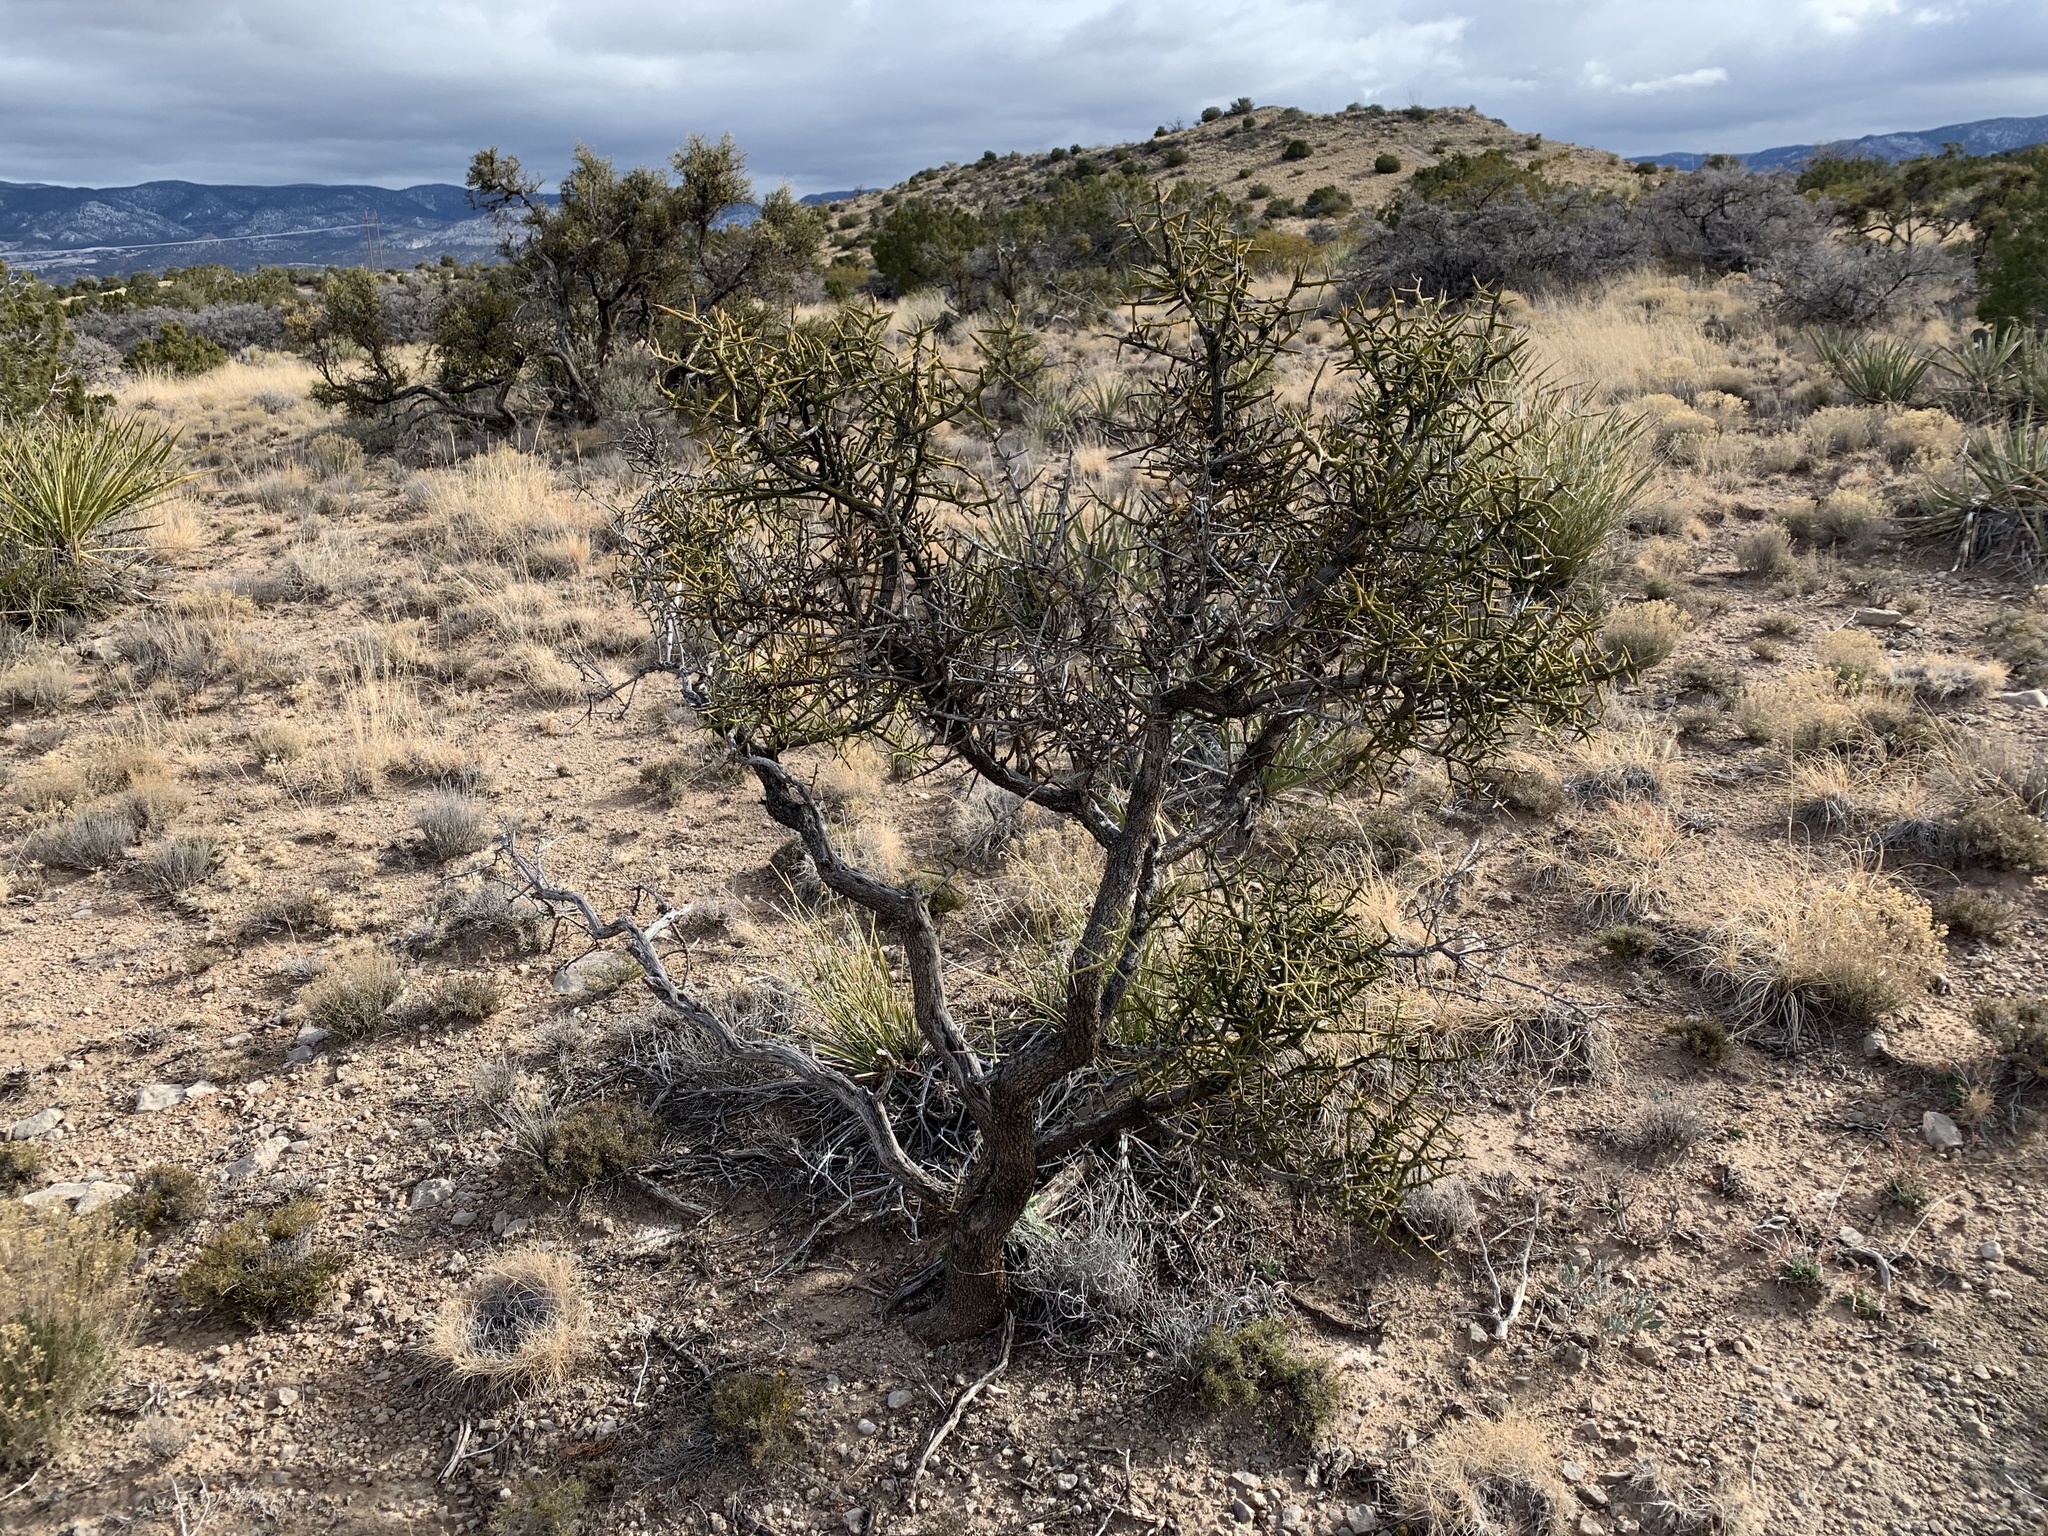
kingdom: Plantae
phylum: Tracheophyta
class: Magnoliopsida
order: Brassicales
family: Koeberliniaceae
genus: Koeberlinia
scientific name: Koeberlinia spinosa
